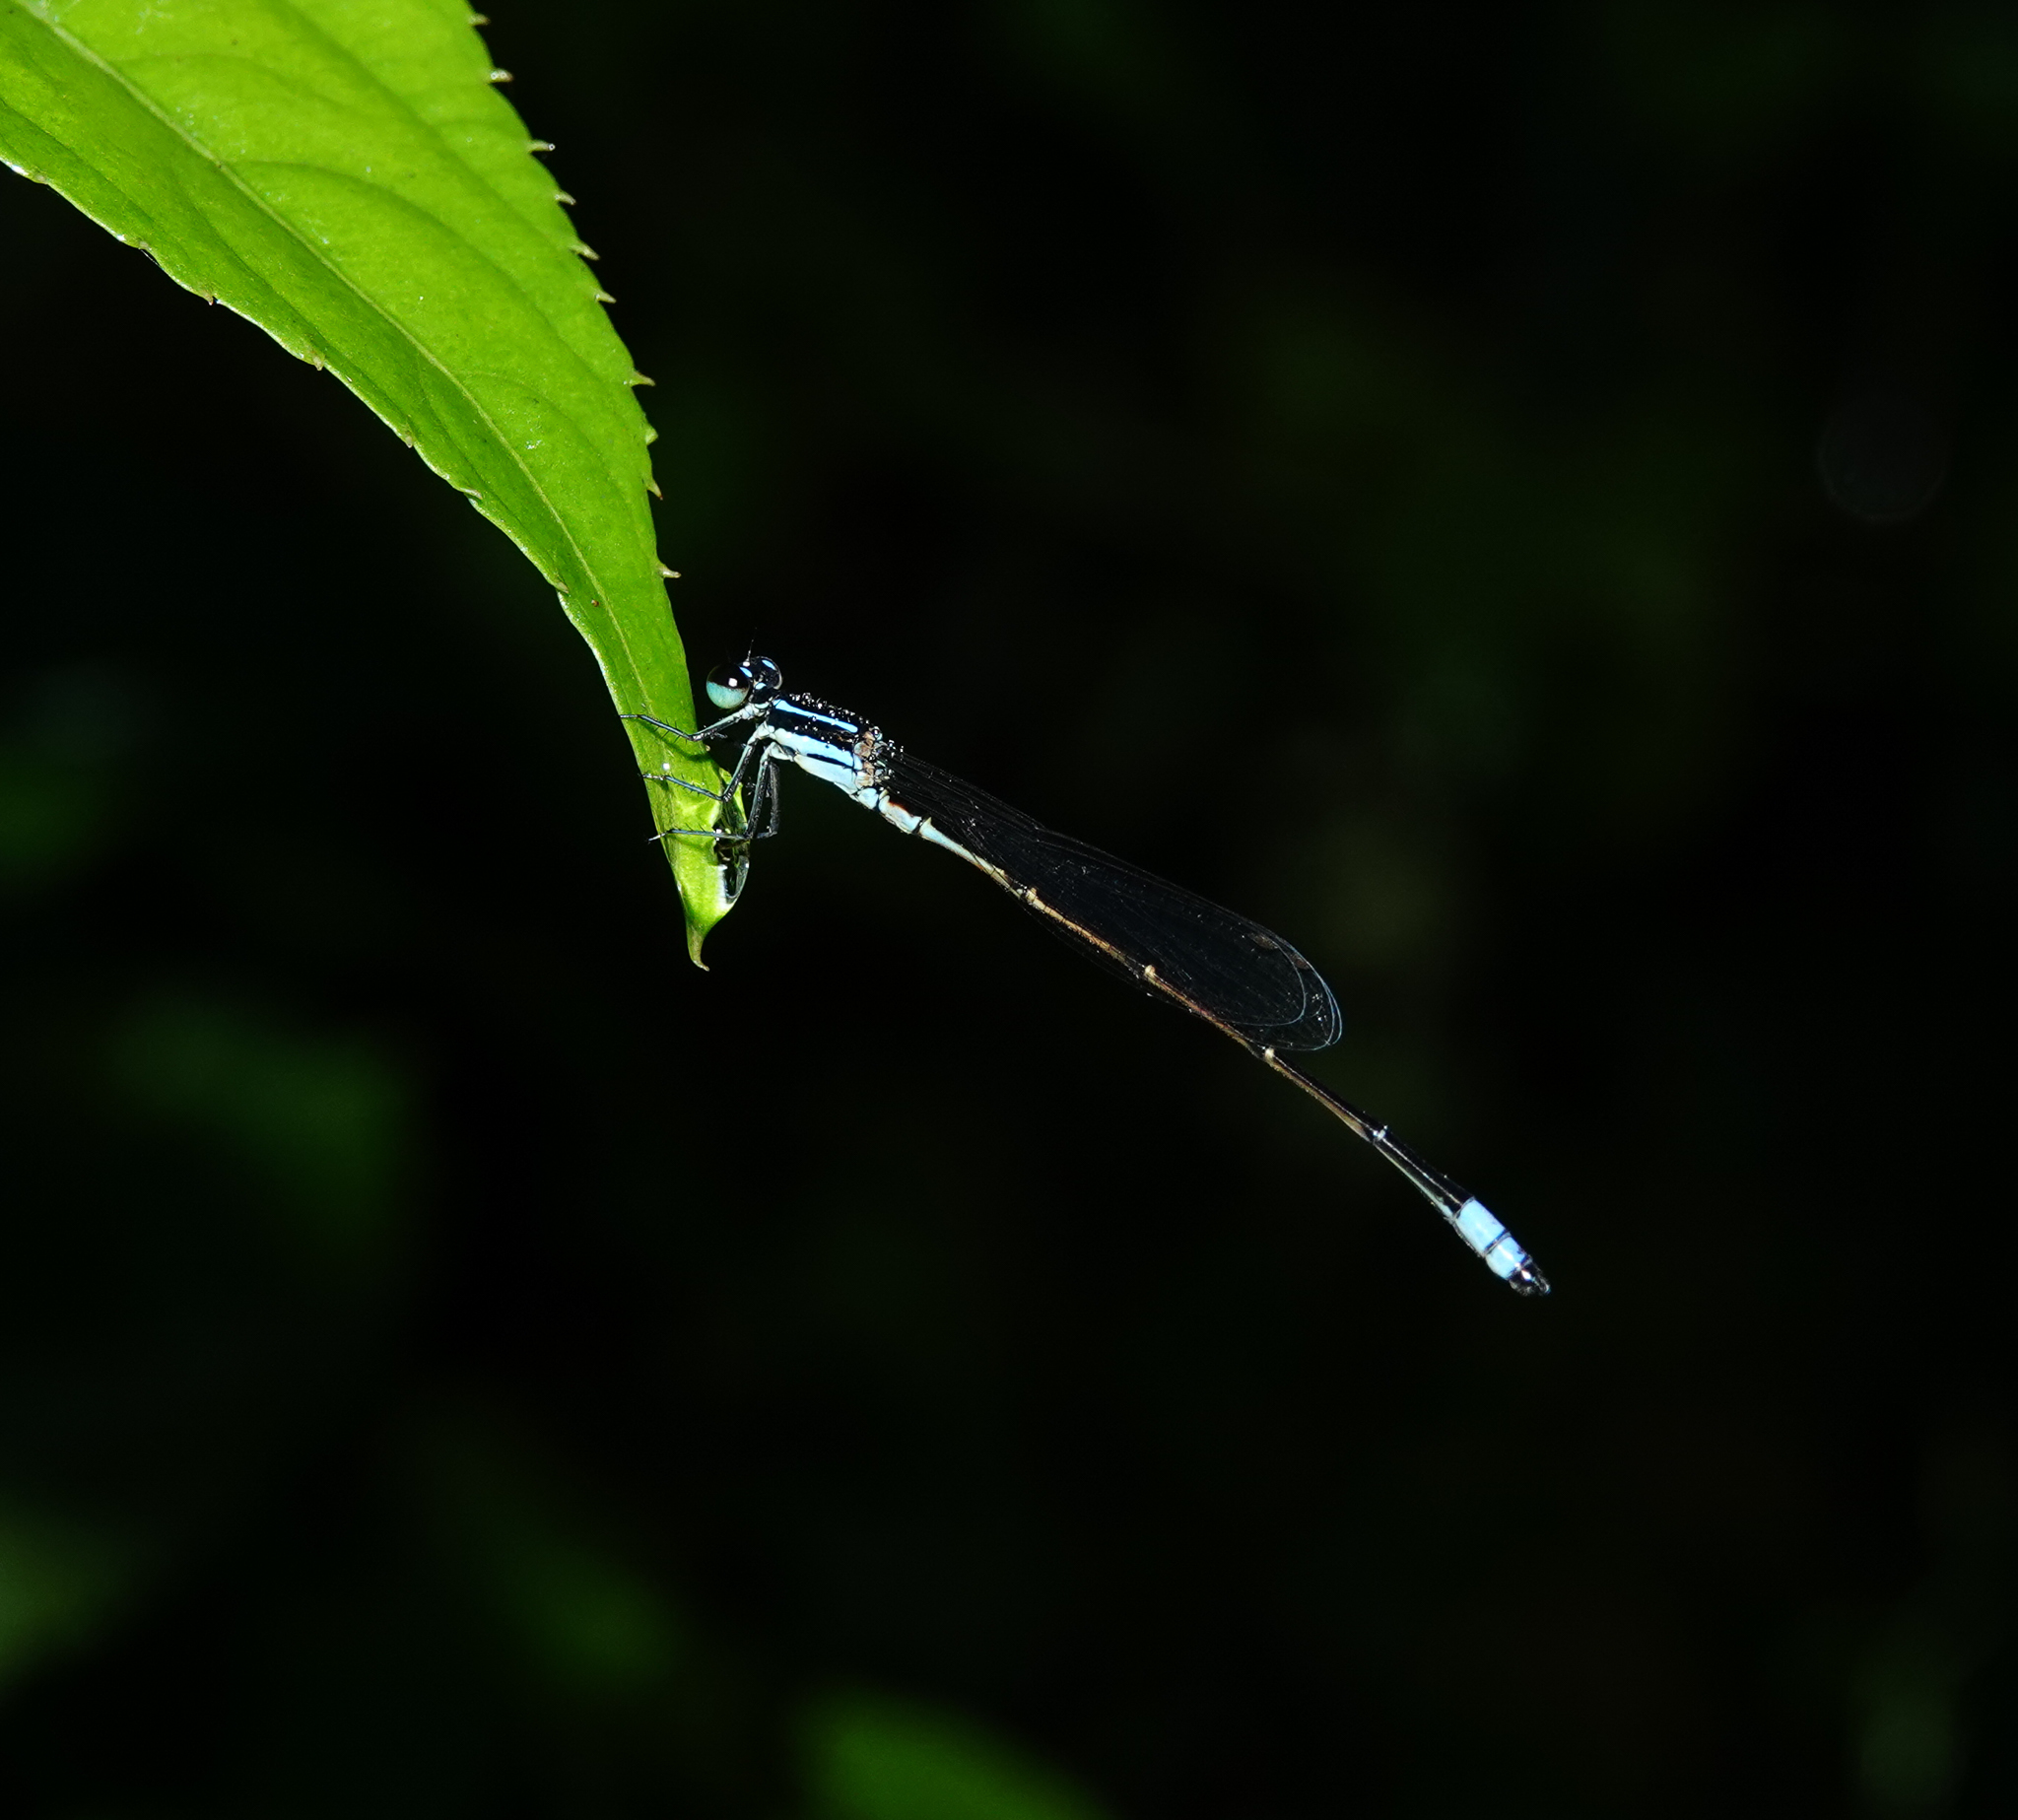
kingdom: Animalia
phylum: Arthropoda
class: Insecta
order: Odonata
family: Coenagrionidae
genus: Argiocnemis
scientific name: Argiocnemis rubescens
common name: Red-tipped shadefly
